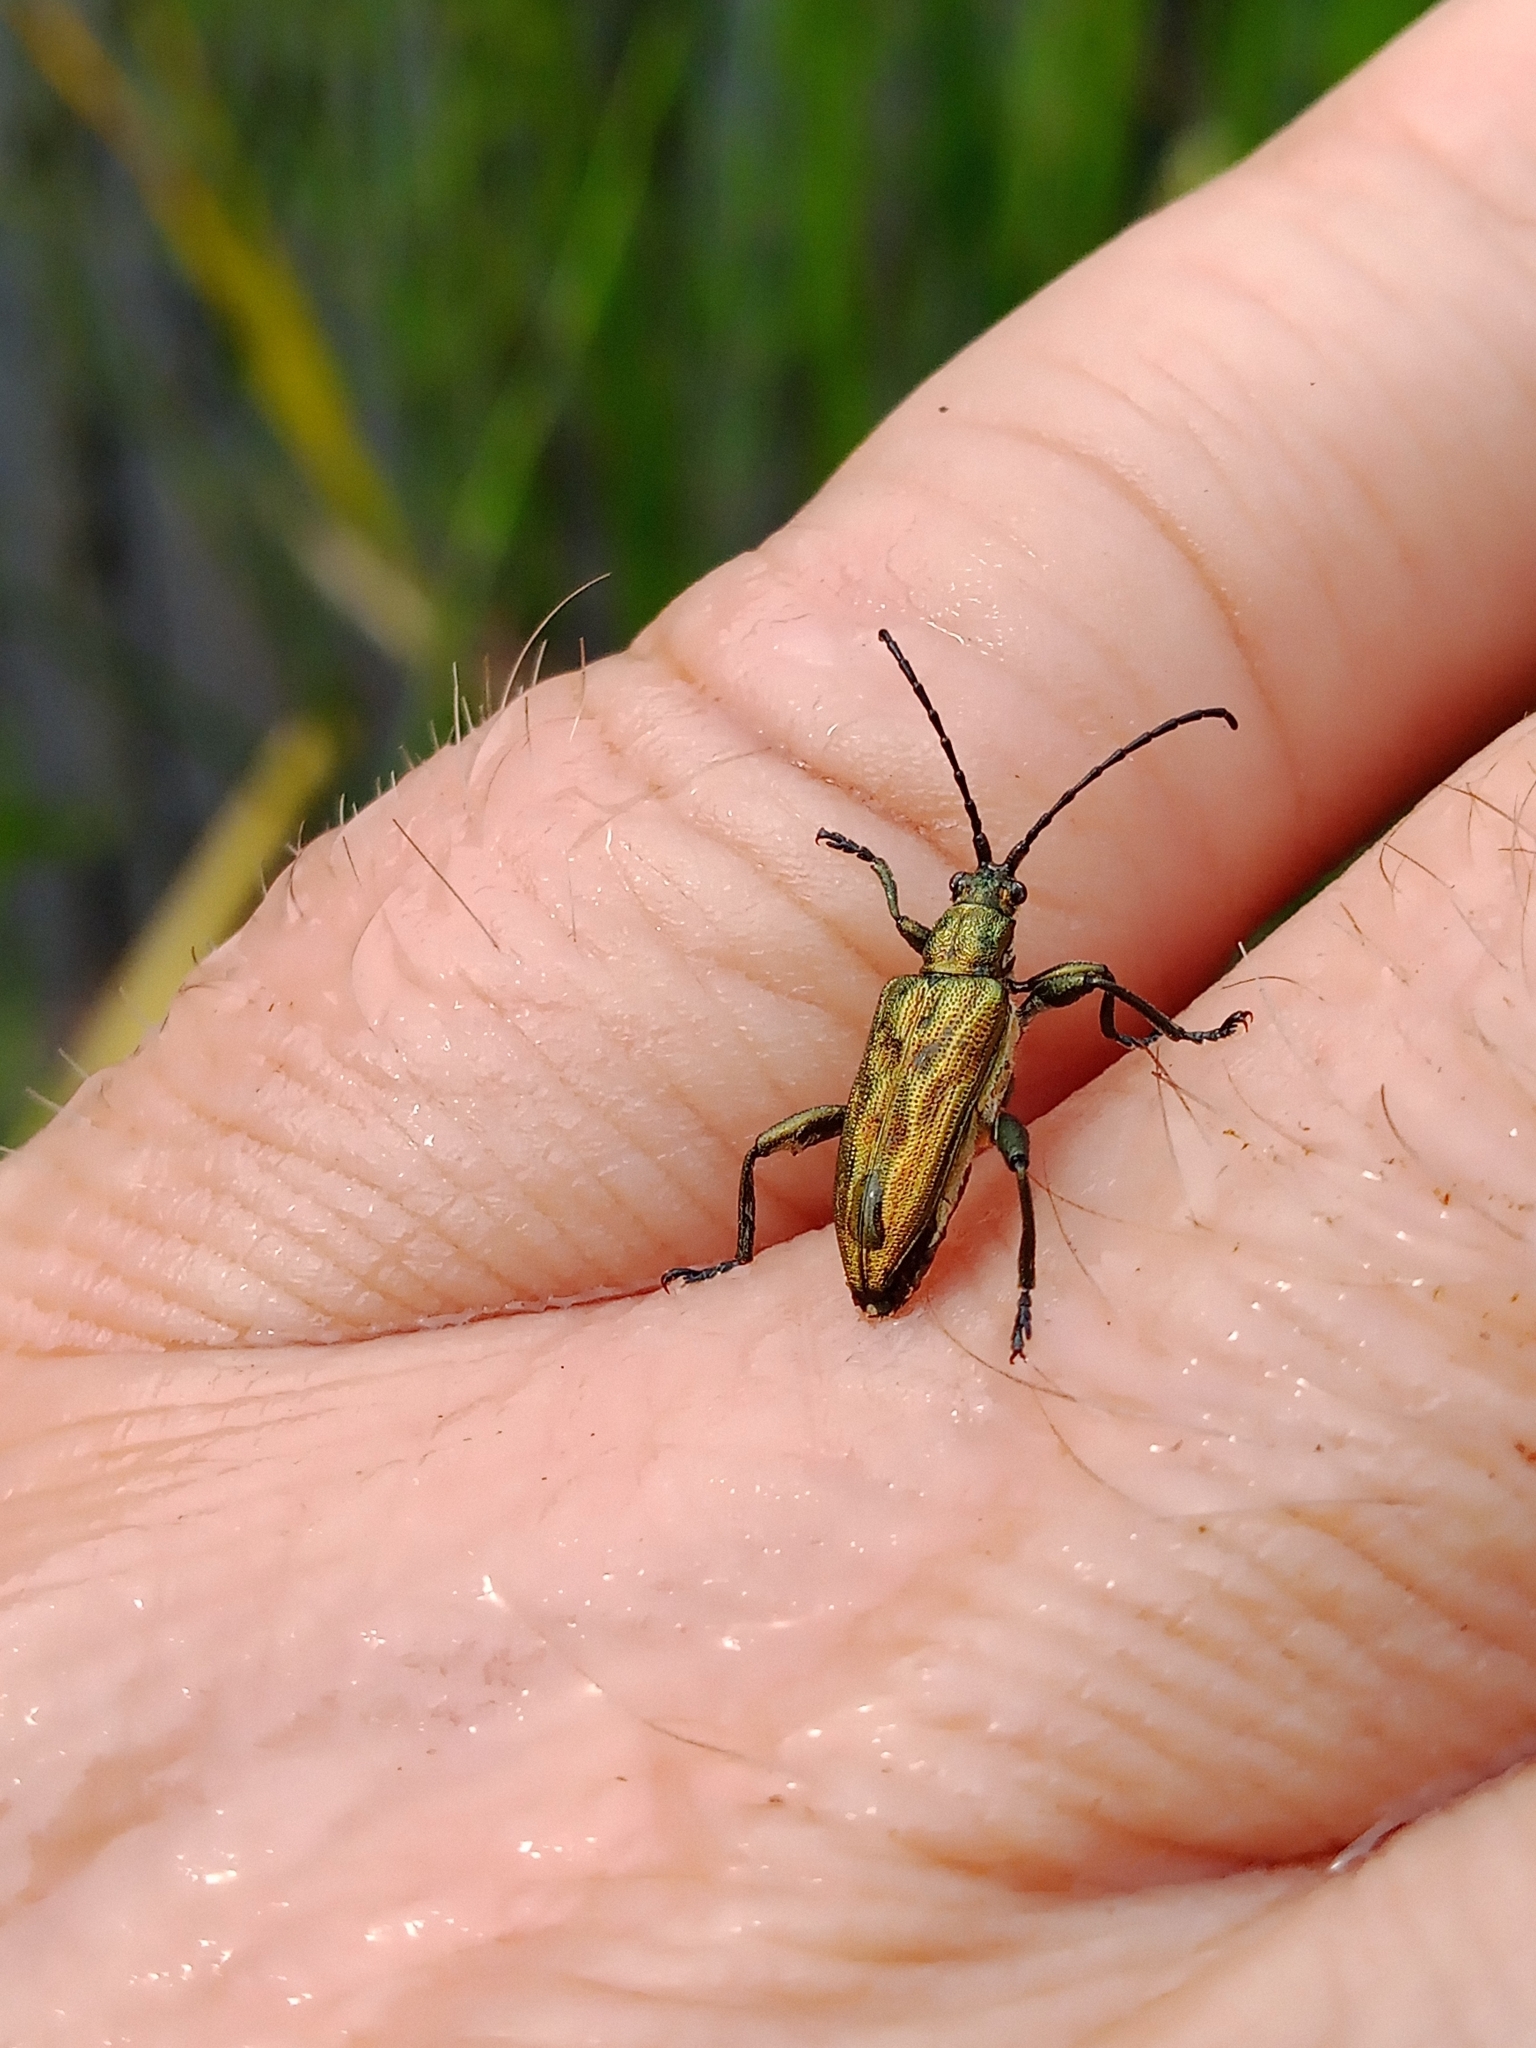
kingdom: Animalia
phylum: Arthropoda
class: Insecta
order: Coleoptera
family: Chrysomelidae
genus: Donacia
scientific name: Donacia bicolora
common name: Reed beetle
